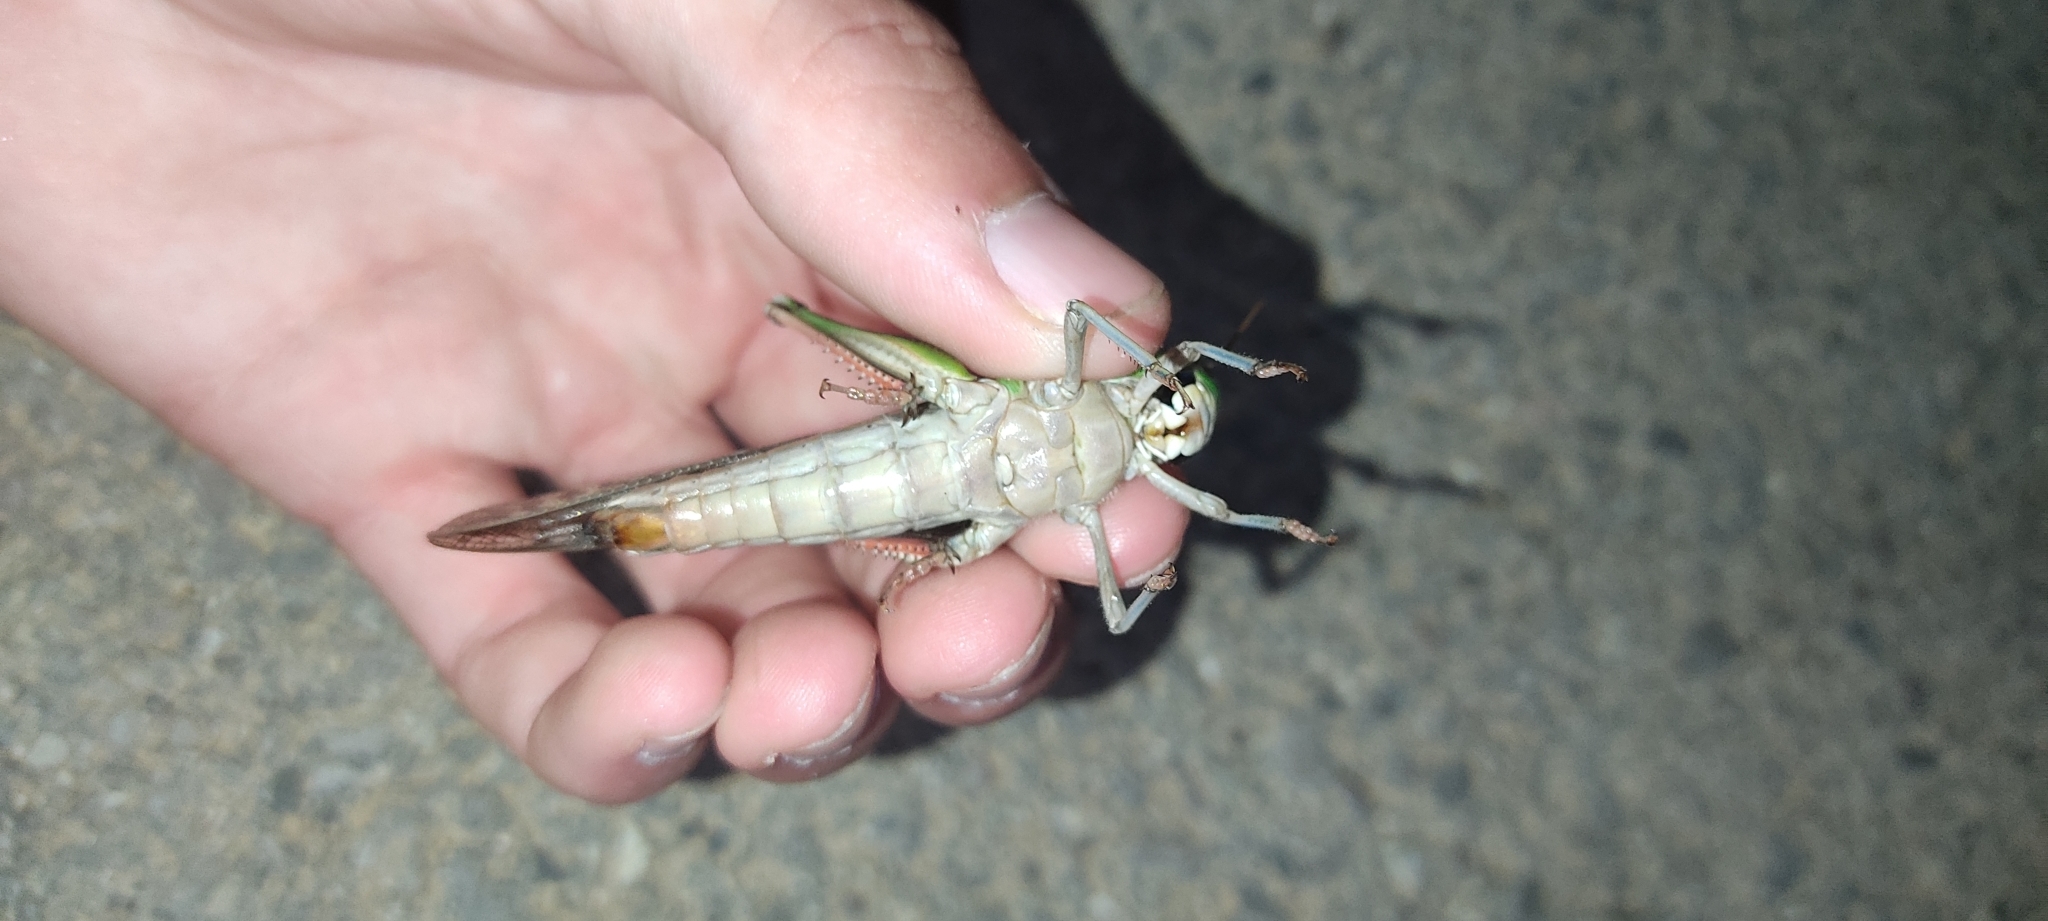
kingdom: Animalia
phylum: Arthropoda
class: Insecta
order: Orthoptera
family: Acrididae
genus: Locusta
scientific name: Locusta migratoria
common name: Migratory locust
